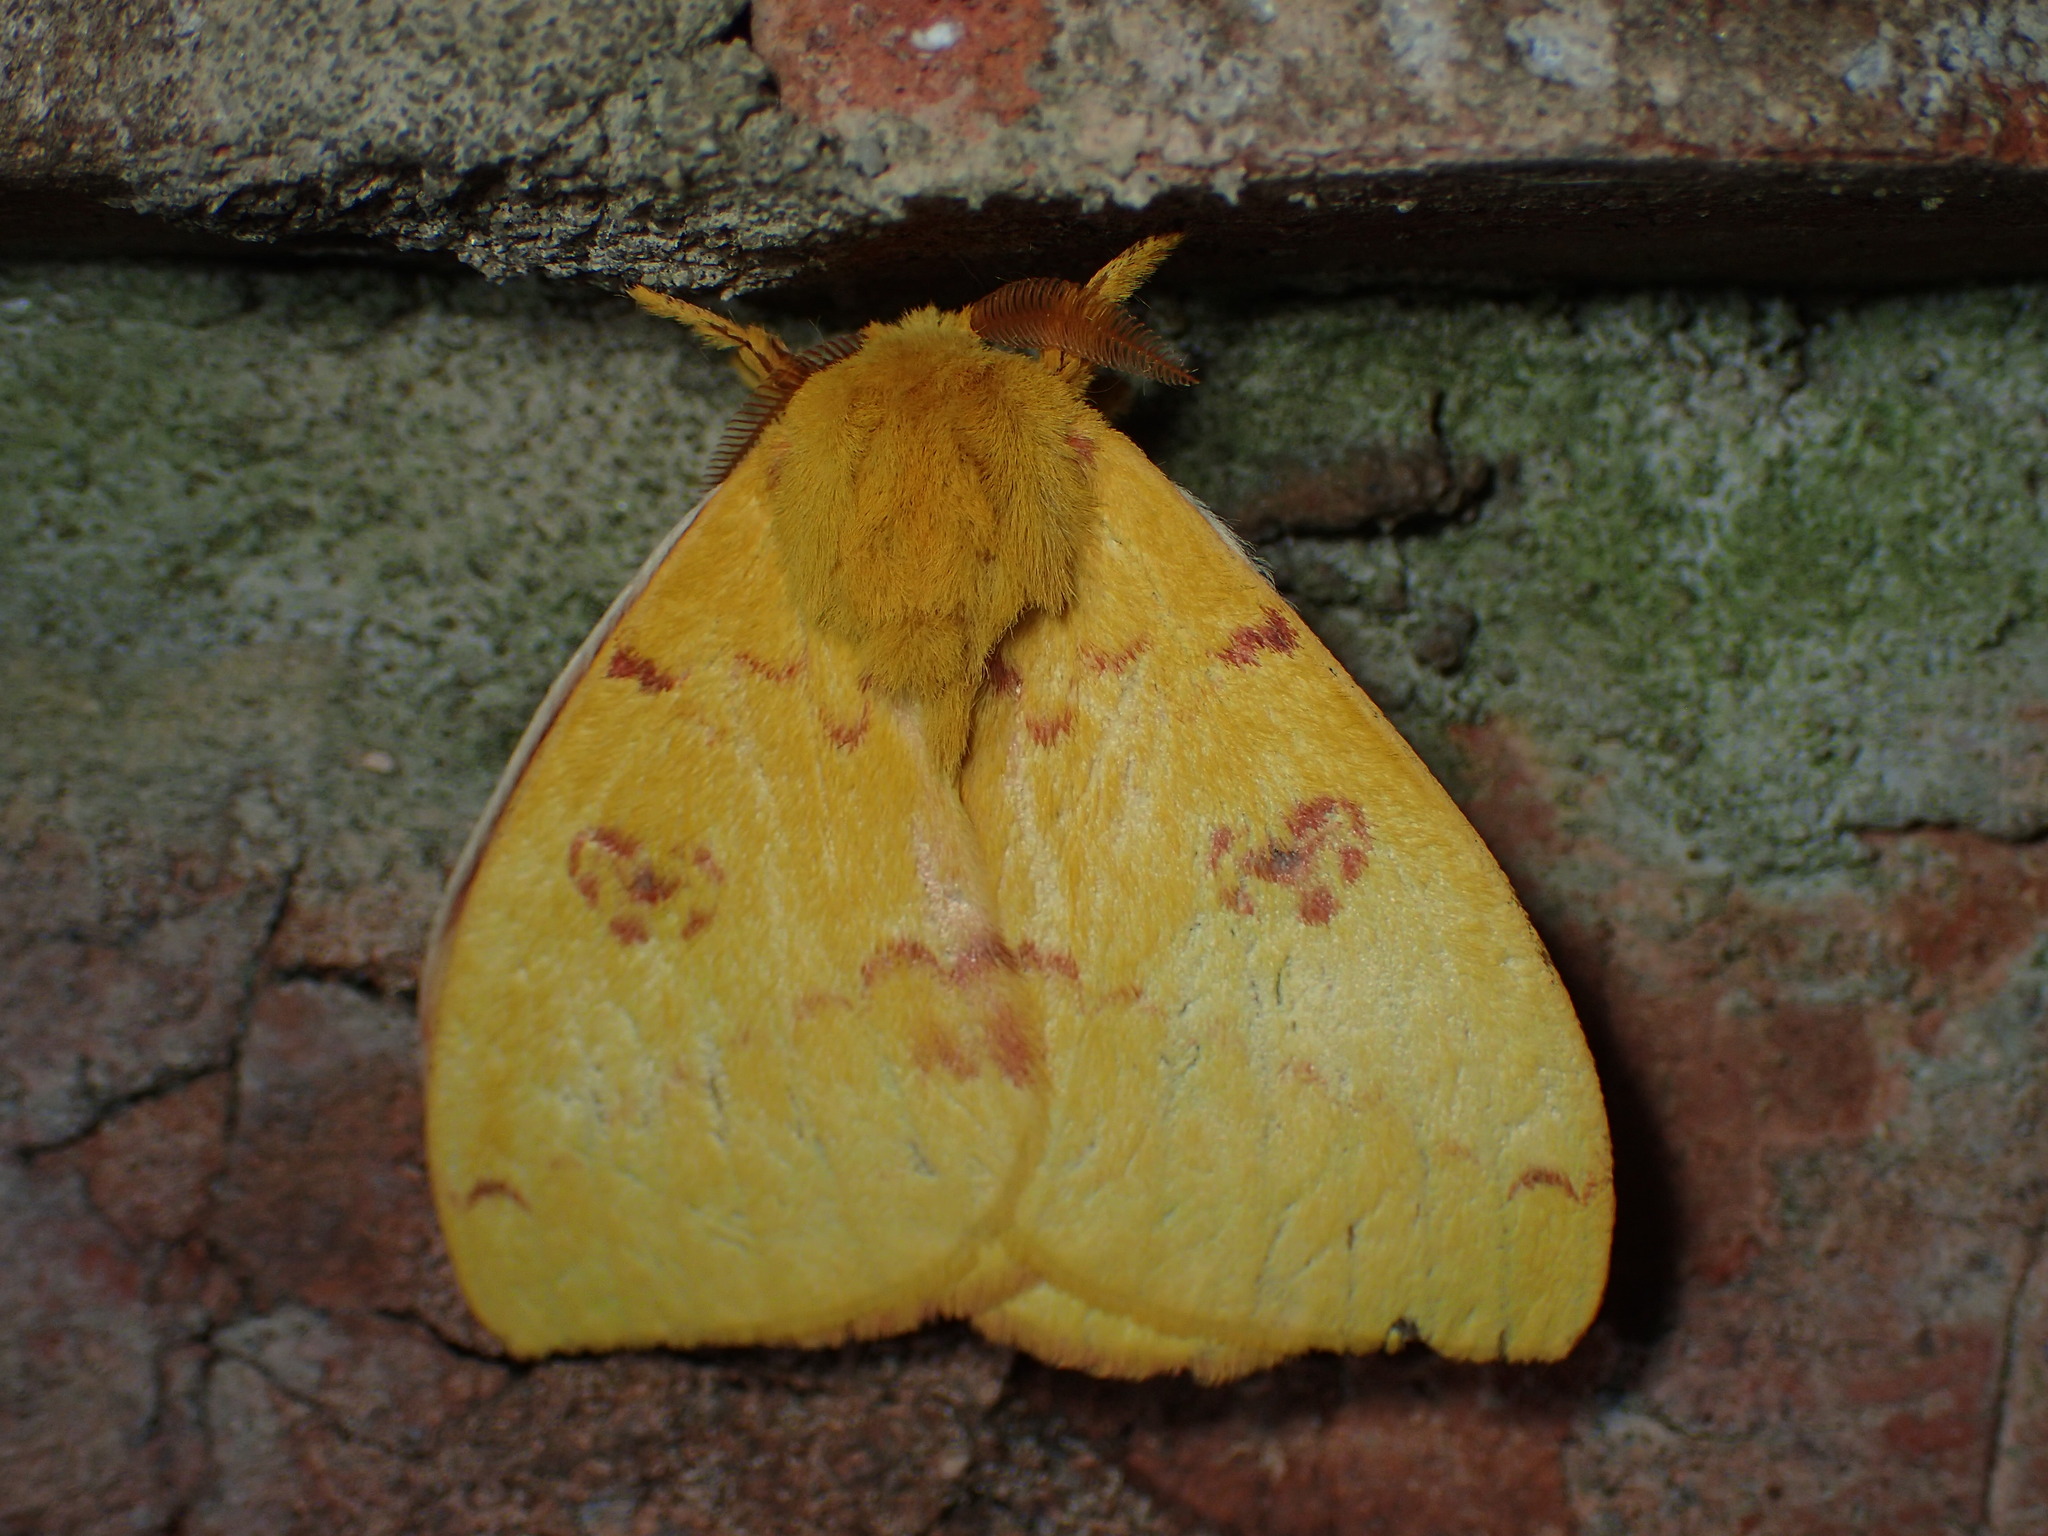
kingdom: Animalia
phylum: Arthropoda
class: Insecta
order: Lepidoptera
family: Saturniidae
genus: Automeris
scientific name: Automeris io
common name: Io moth
